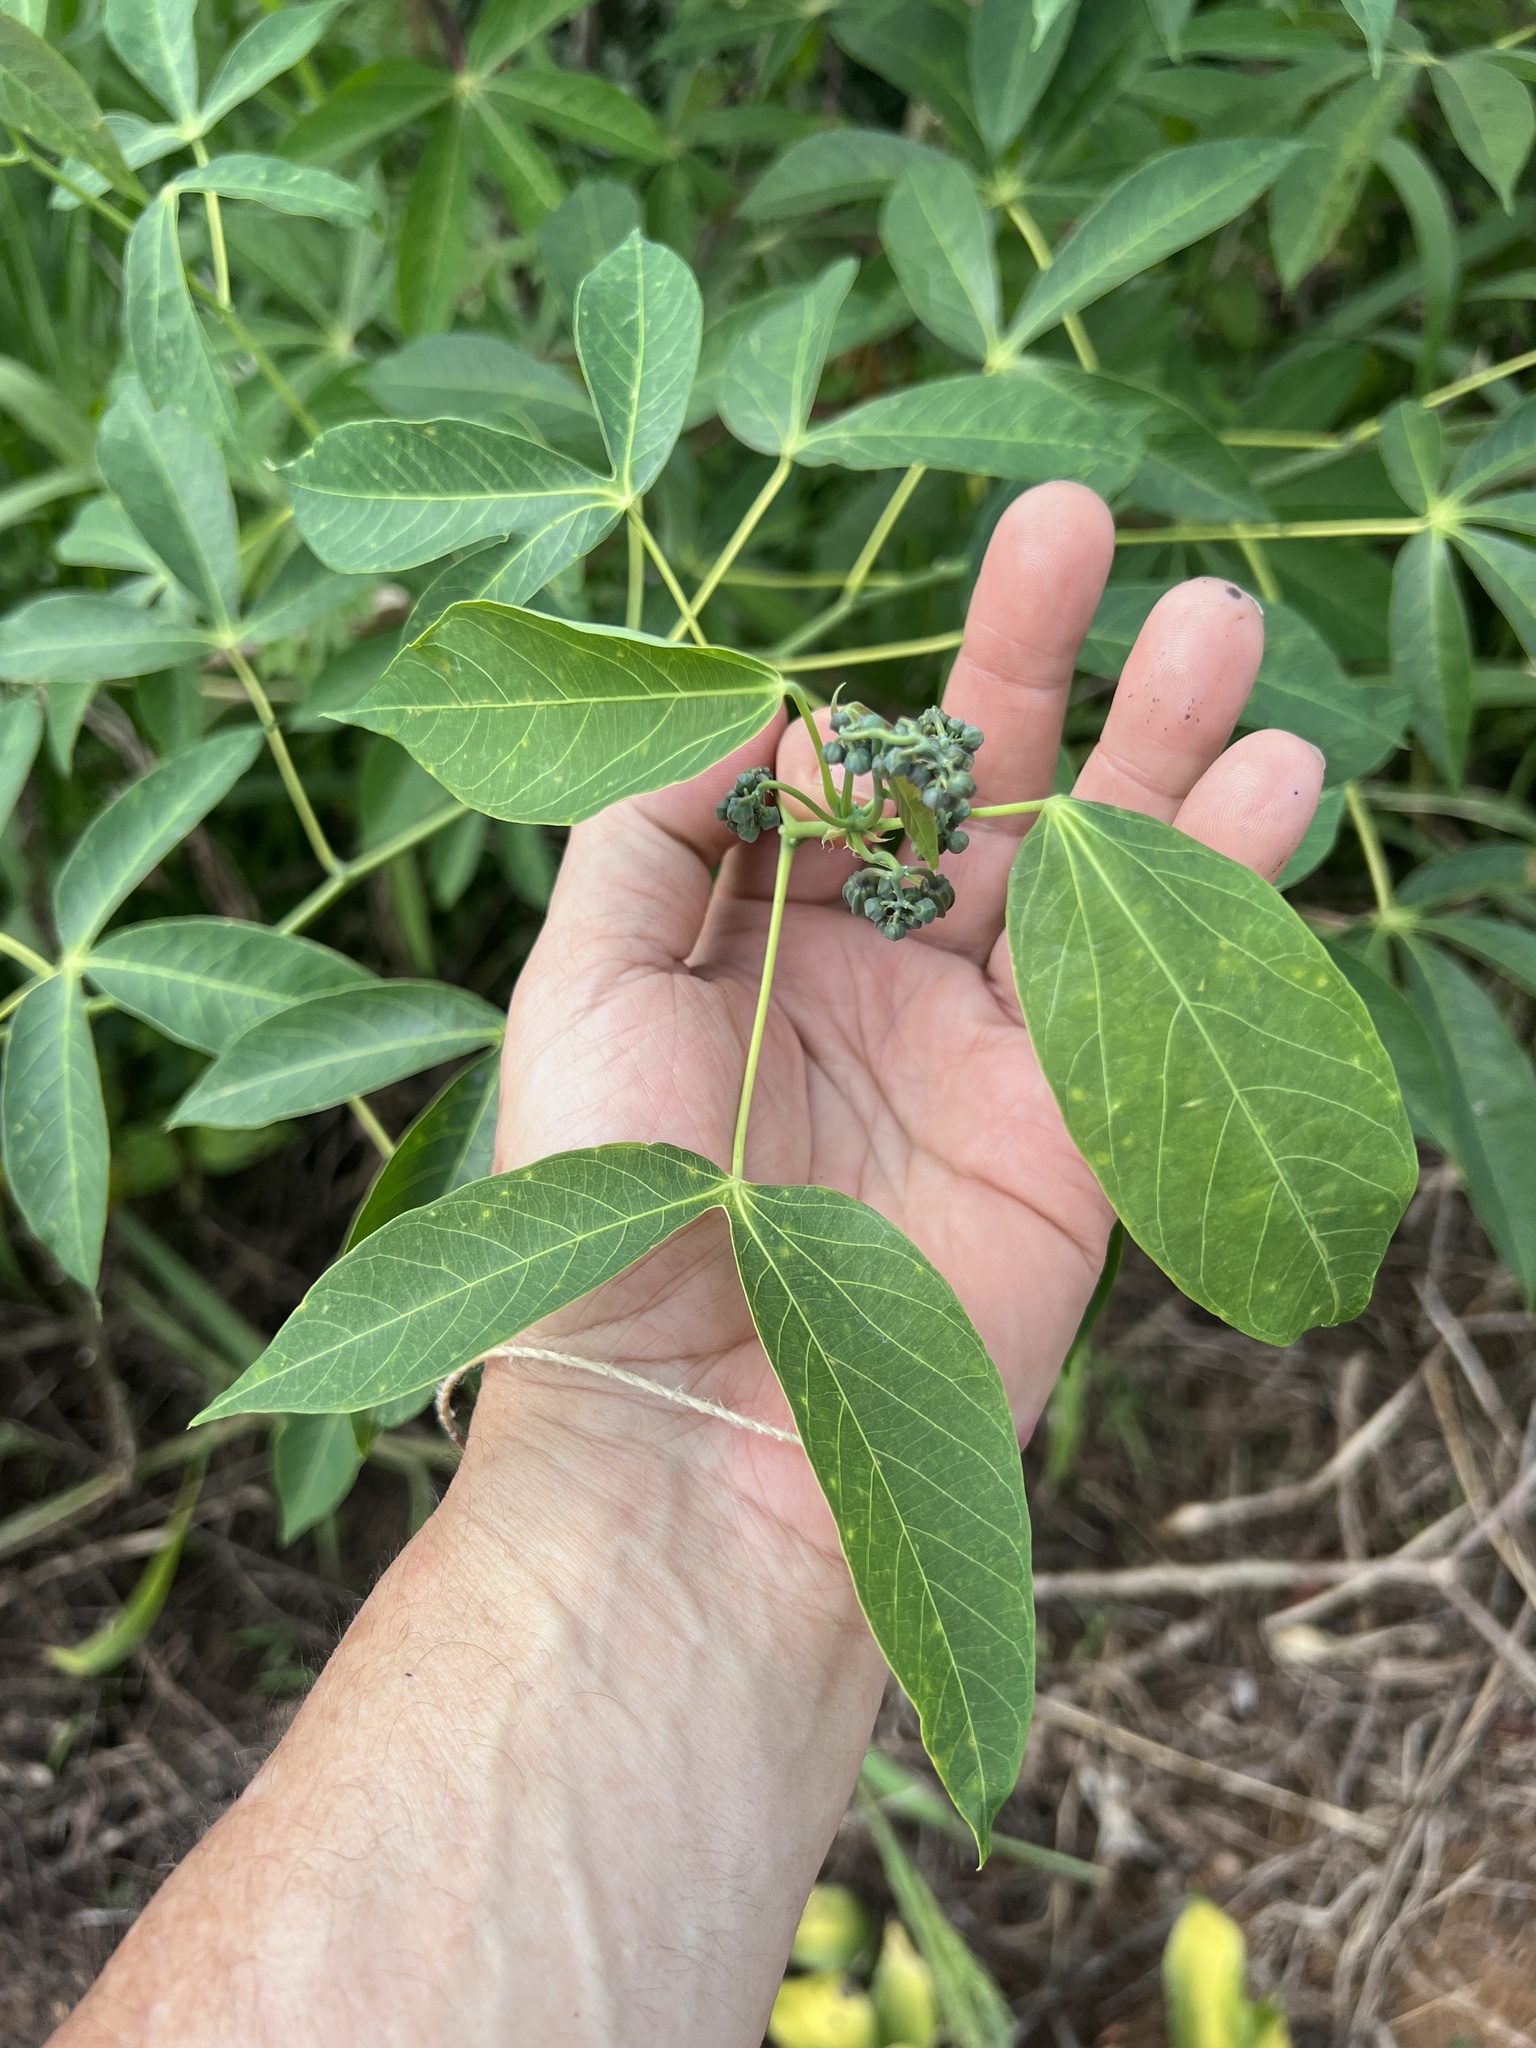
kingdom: Plantae
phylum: Tracheophyta
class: Magnoliopsida
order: Malpighiales
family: Euphorbiaceae
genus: Manihot
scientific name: Manihot esculenta
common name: Cassava
